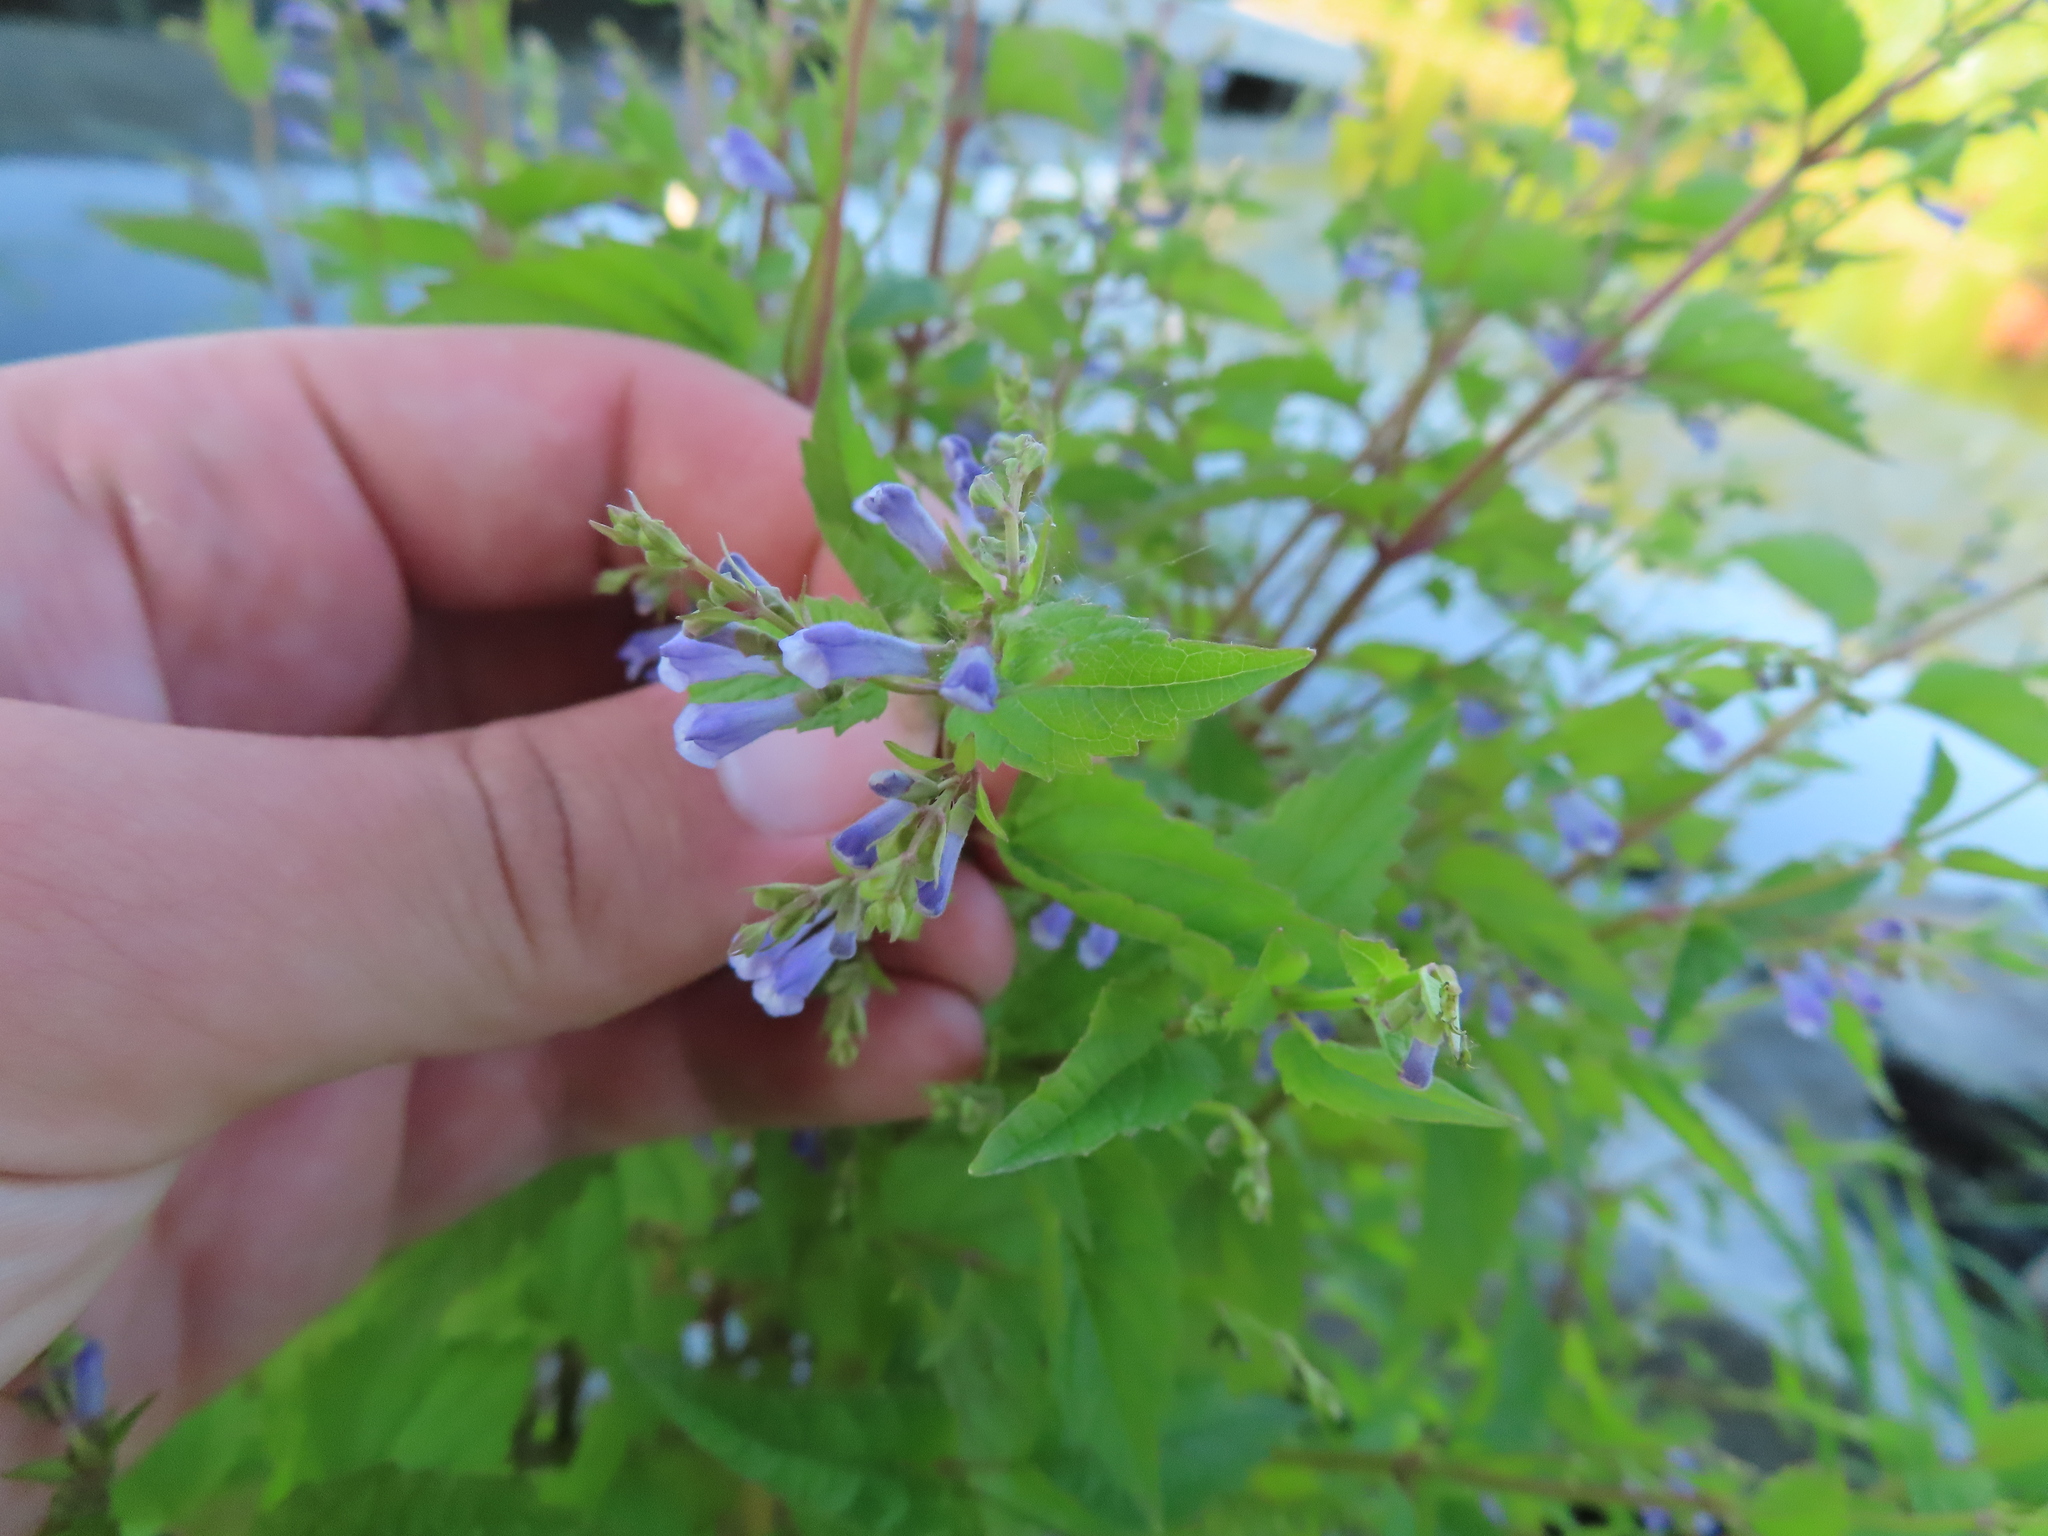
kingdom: Plantae
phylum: Tracheophyta
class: Magnoliopsida
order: Lamiales
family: Lamiaceae
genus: Scutellaria
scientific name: Scutellaria lateriflora
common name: Blue skullcap
